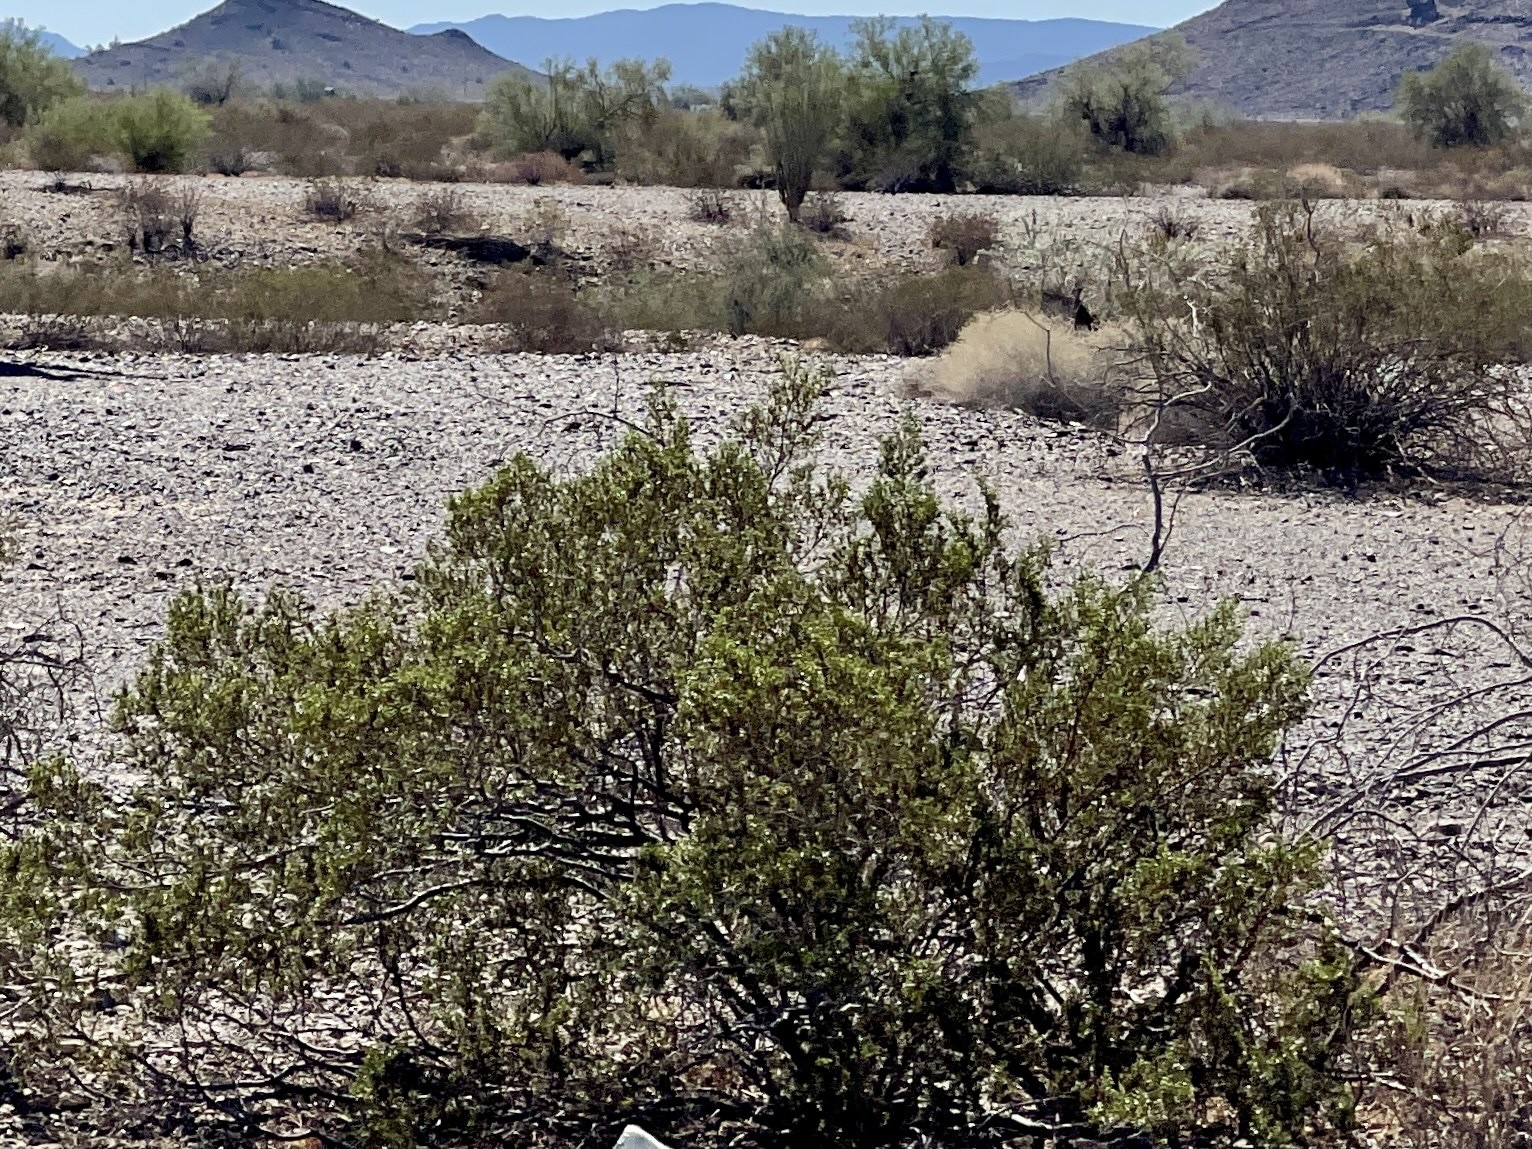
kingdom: Plantae
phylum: Tracheophyta
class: Magnoliopsida
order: Zygophyllales
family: Zygophyllaceae
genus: Larrea
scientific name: Larrea tridentata
